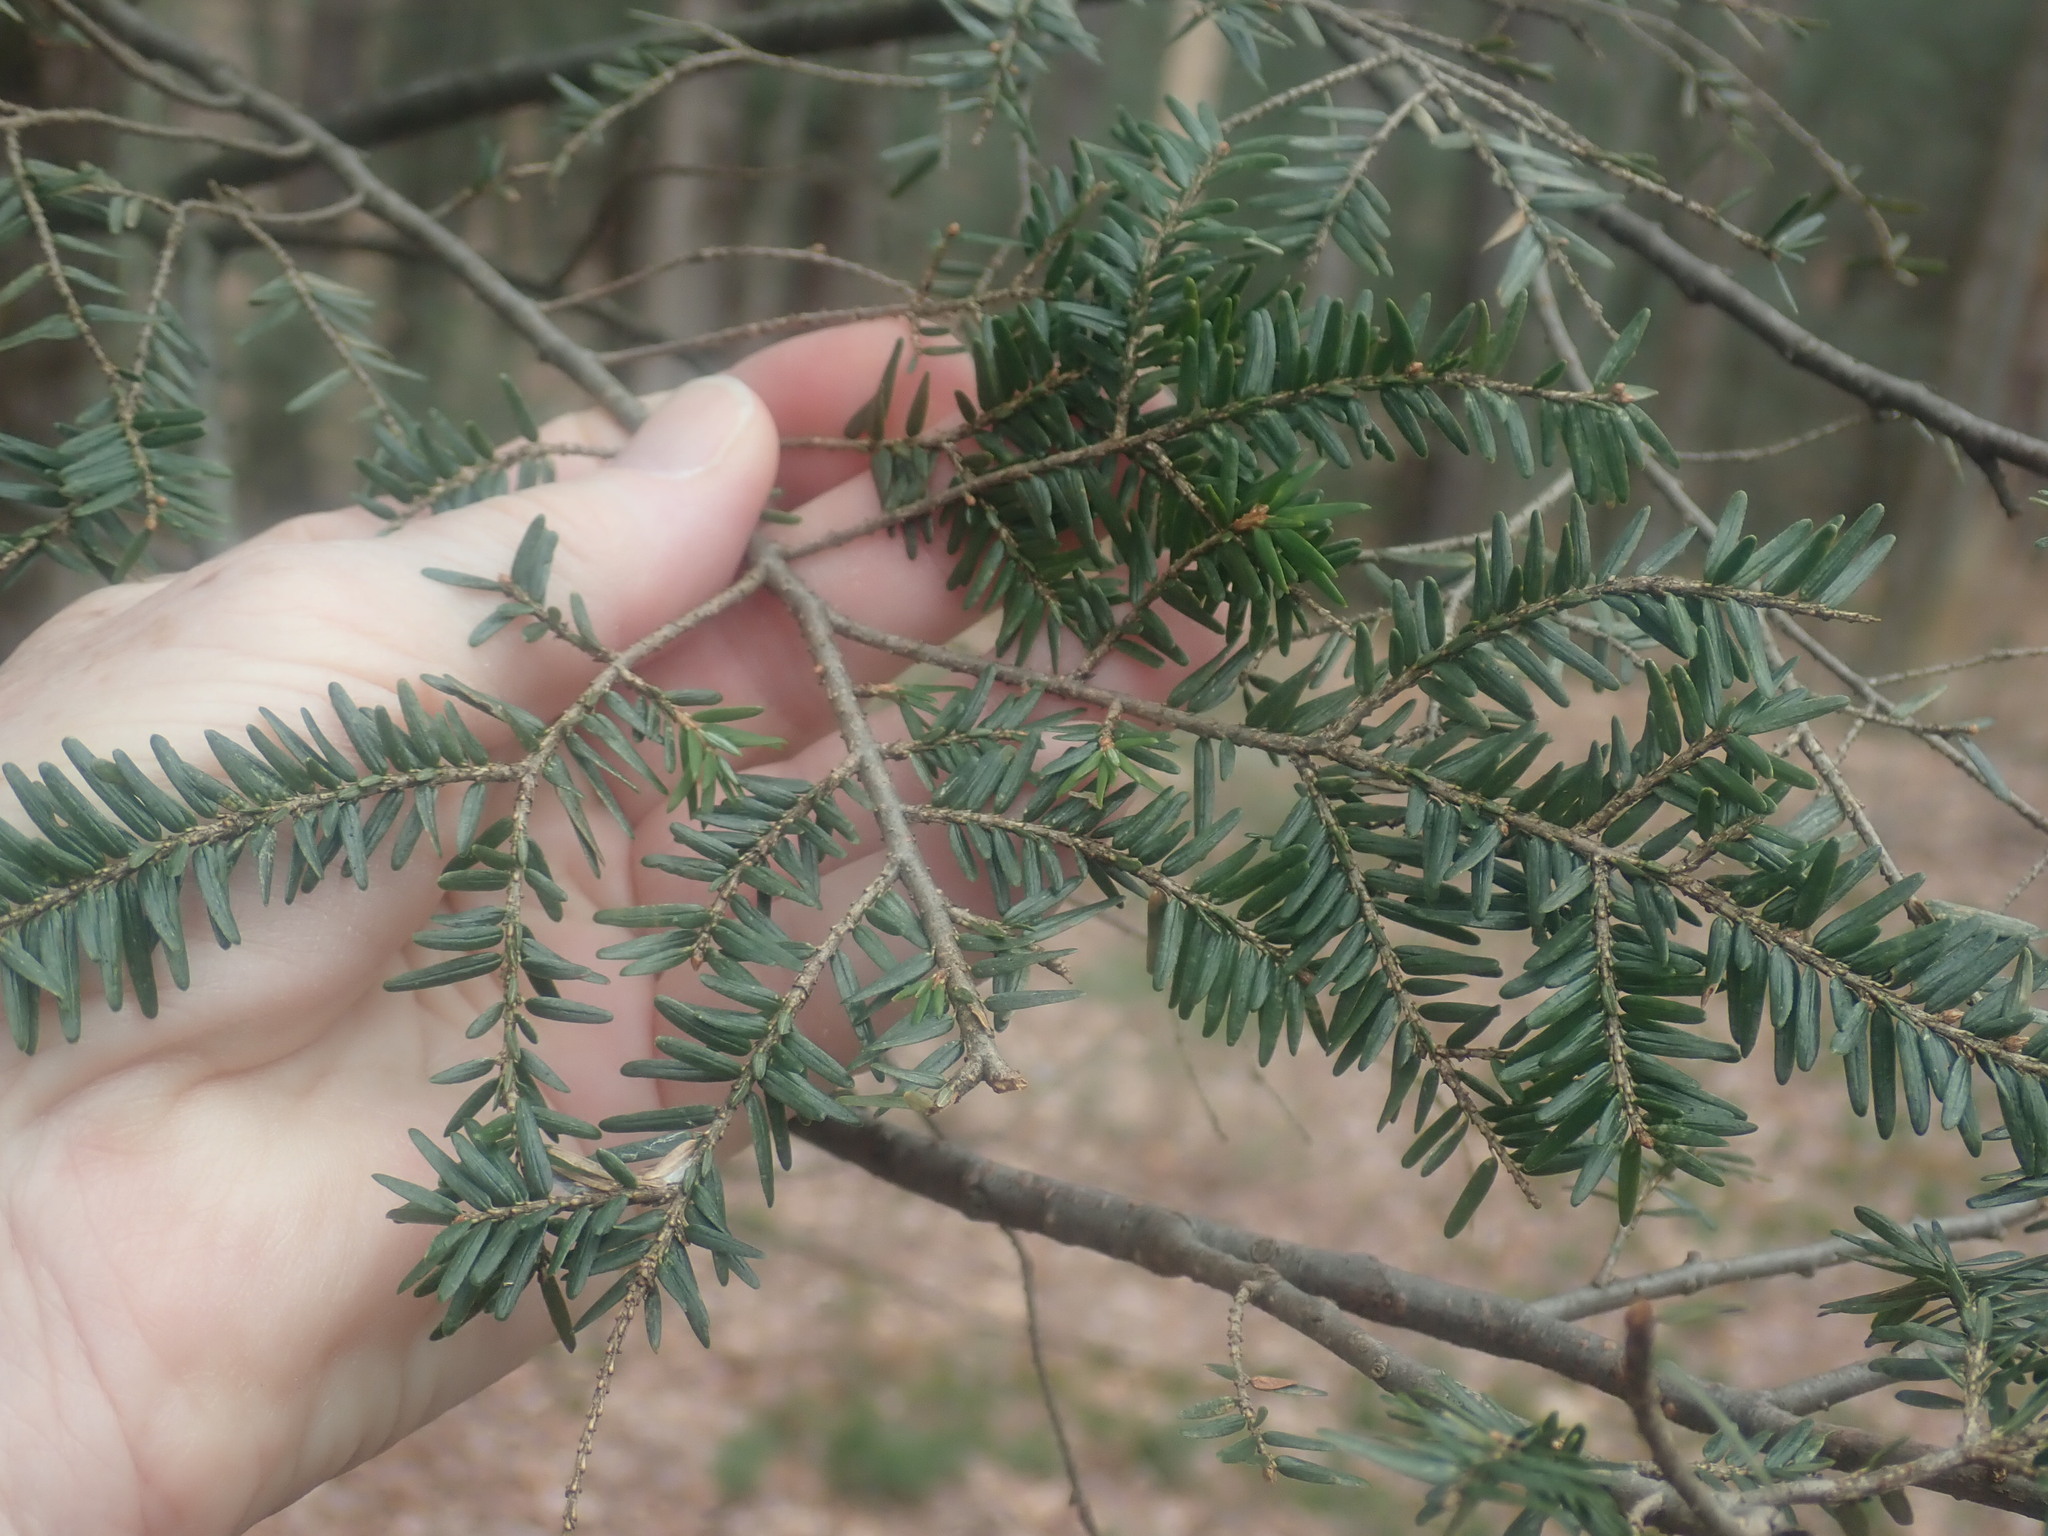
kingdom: Plantae
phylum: Tracheophyta
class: Pinopsida
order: Pinales
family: Pinaceae
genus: Tsuga
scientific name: Tsuga canadensis
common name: Eastern hemlock
